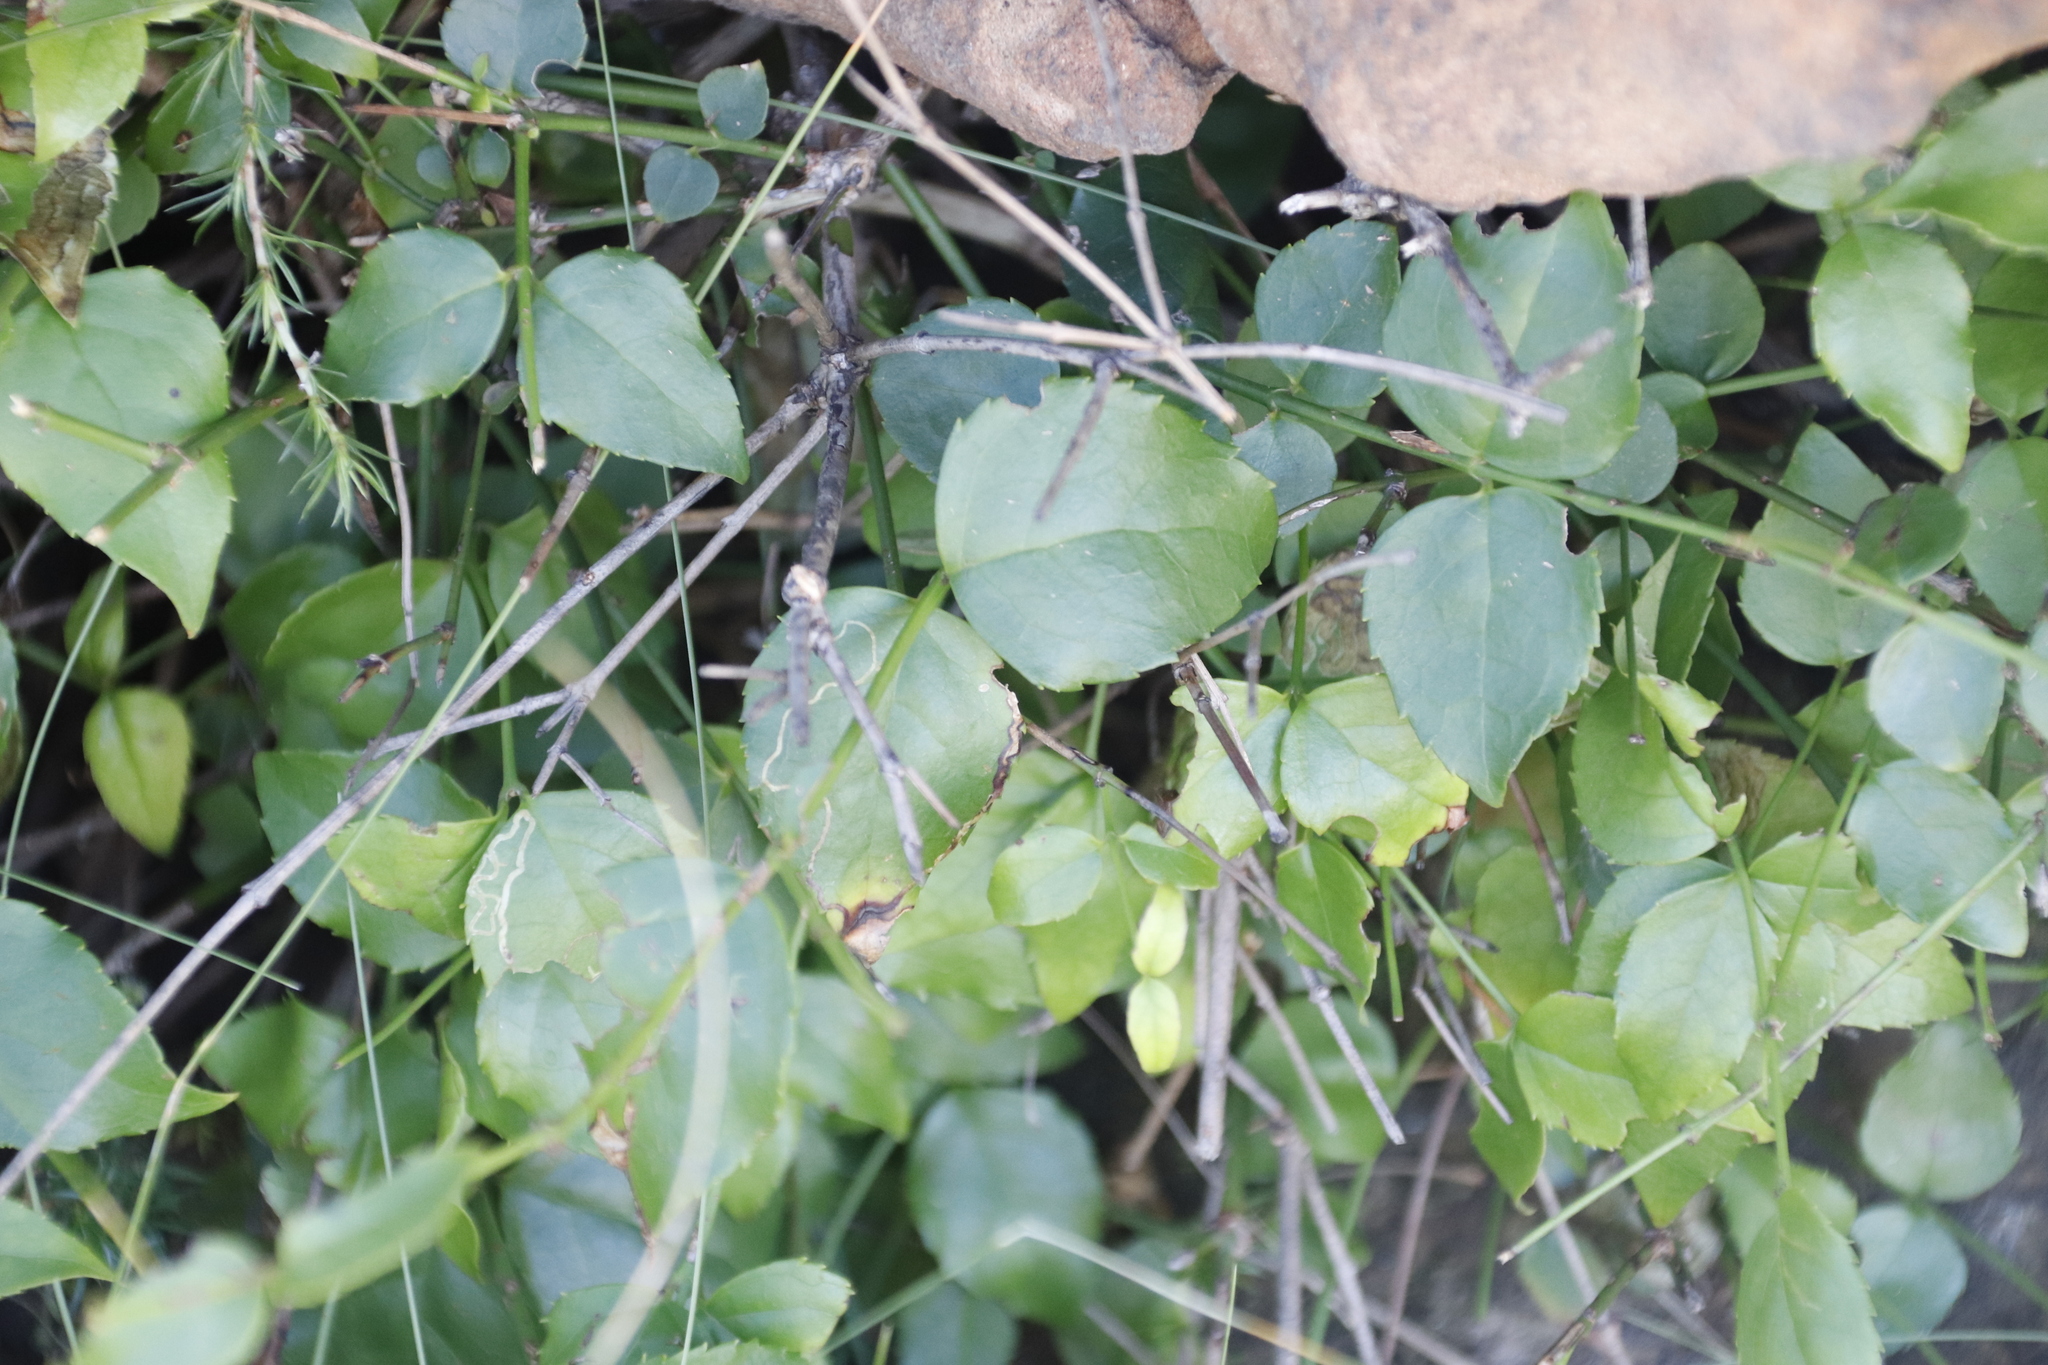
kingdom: Plantae
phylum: Tracheophyta
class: Magnoliopsida
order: Lamiales
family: Stilbaceae
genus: Halleria
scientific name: Halleria lucida
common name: Tree fuschia
